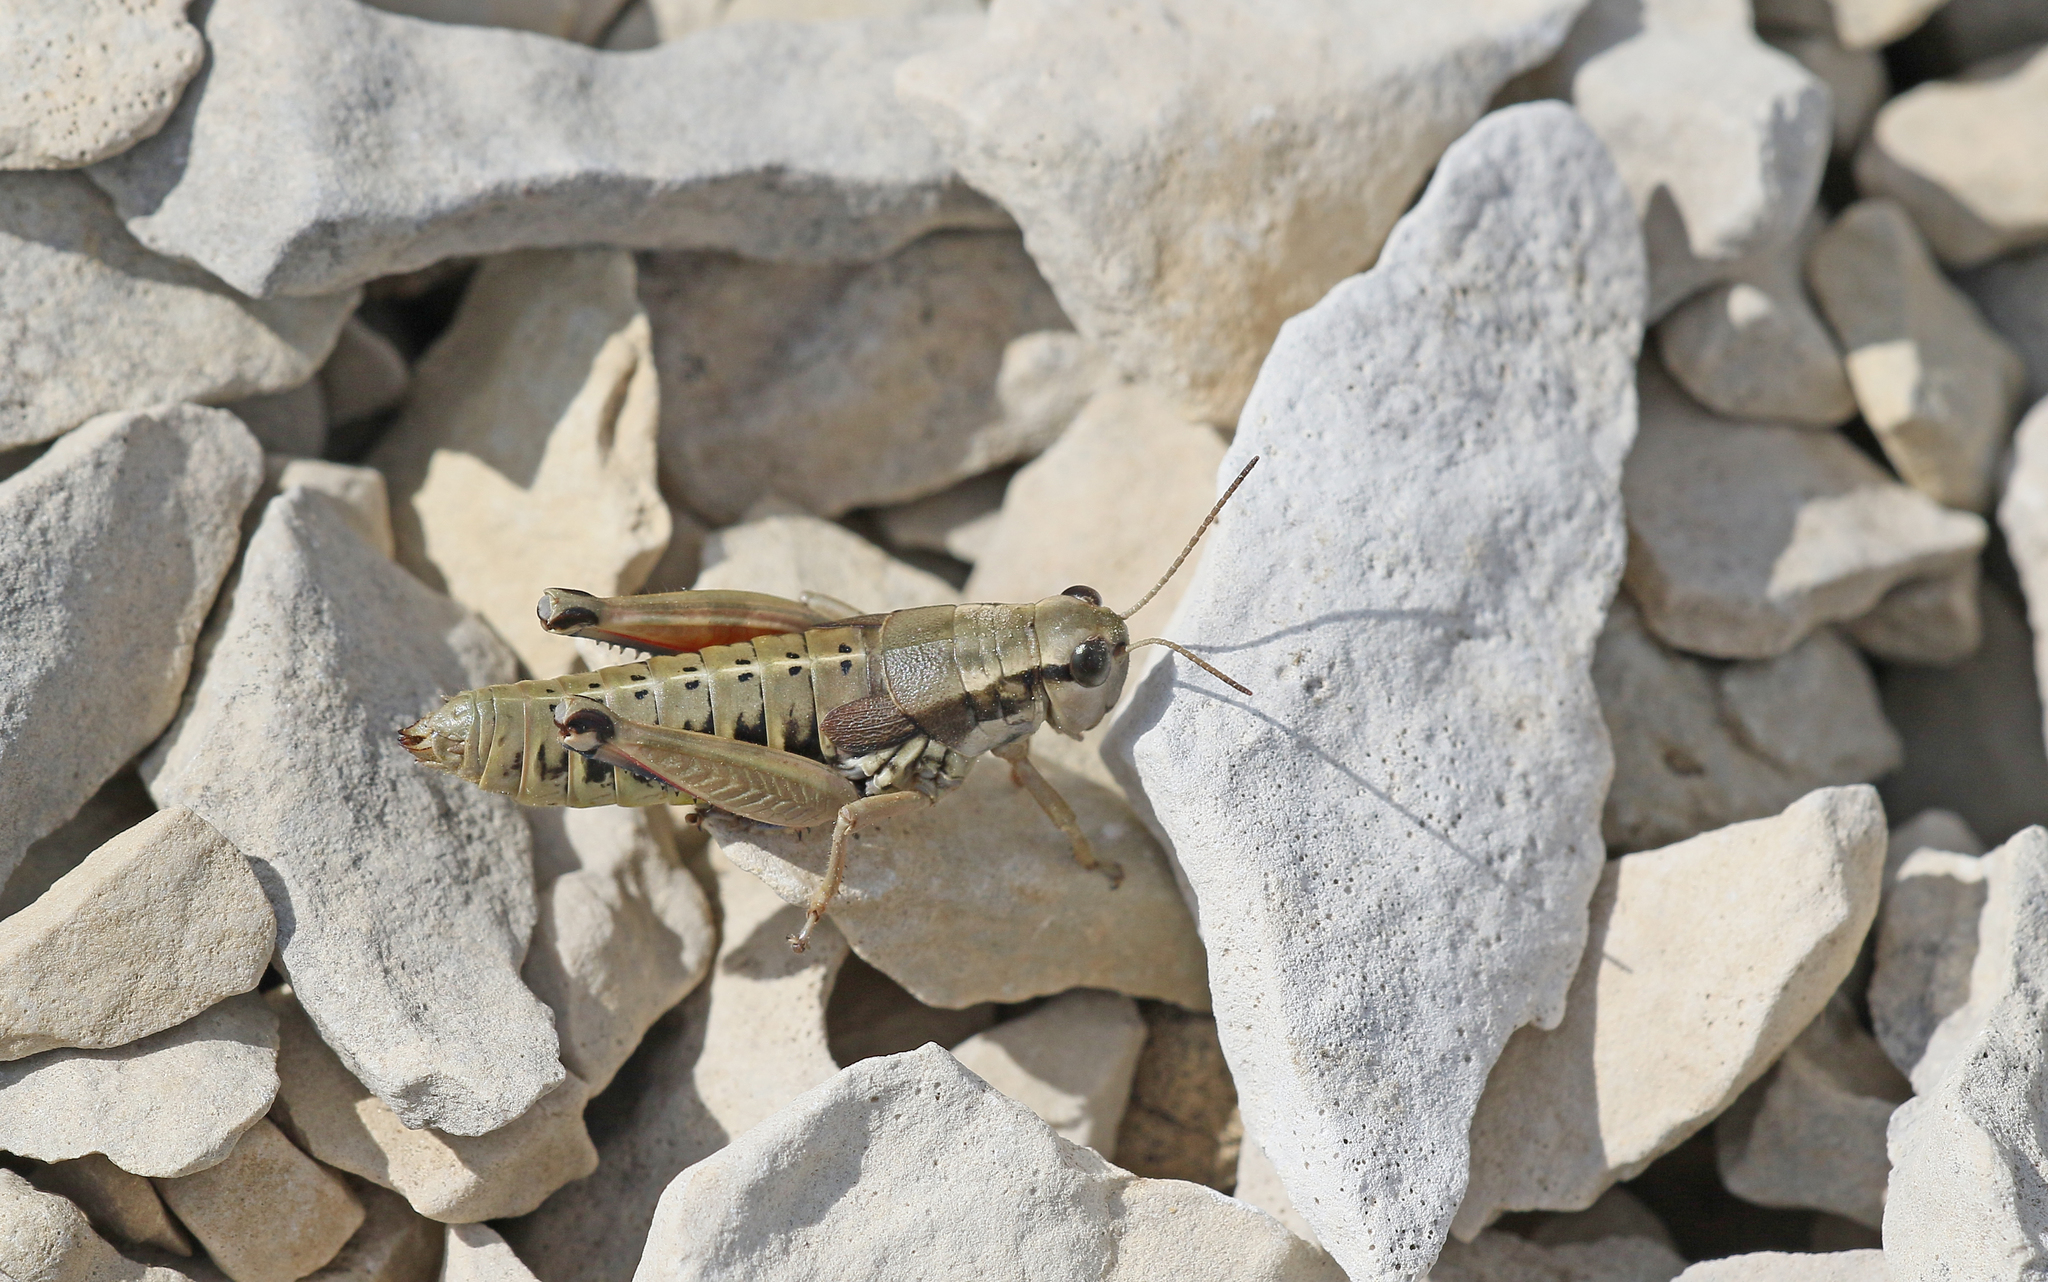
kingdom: Animalia
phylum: Arthropoda
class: Insecta
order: Orthoptera
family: Acrididae
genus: Podisma
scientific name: Podisma amedegnatoae
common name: Ventoux mountain grasshopper
